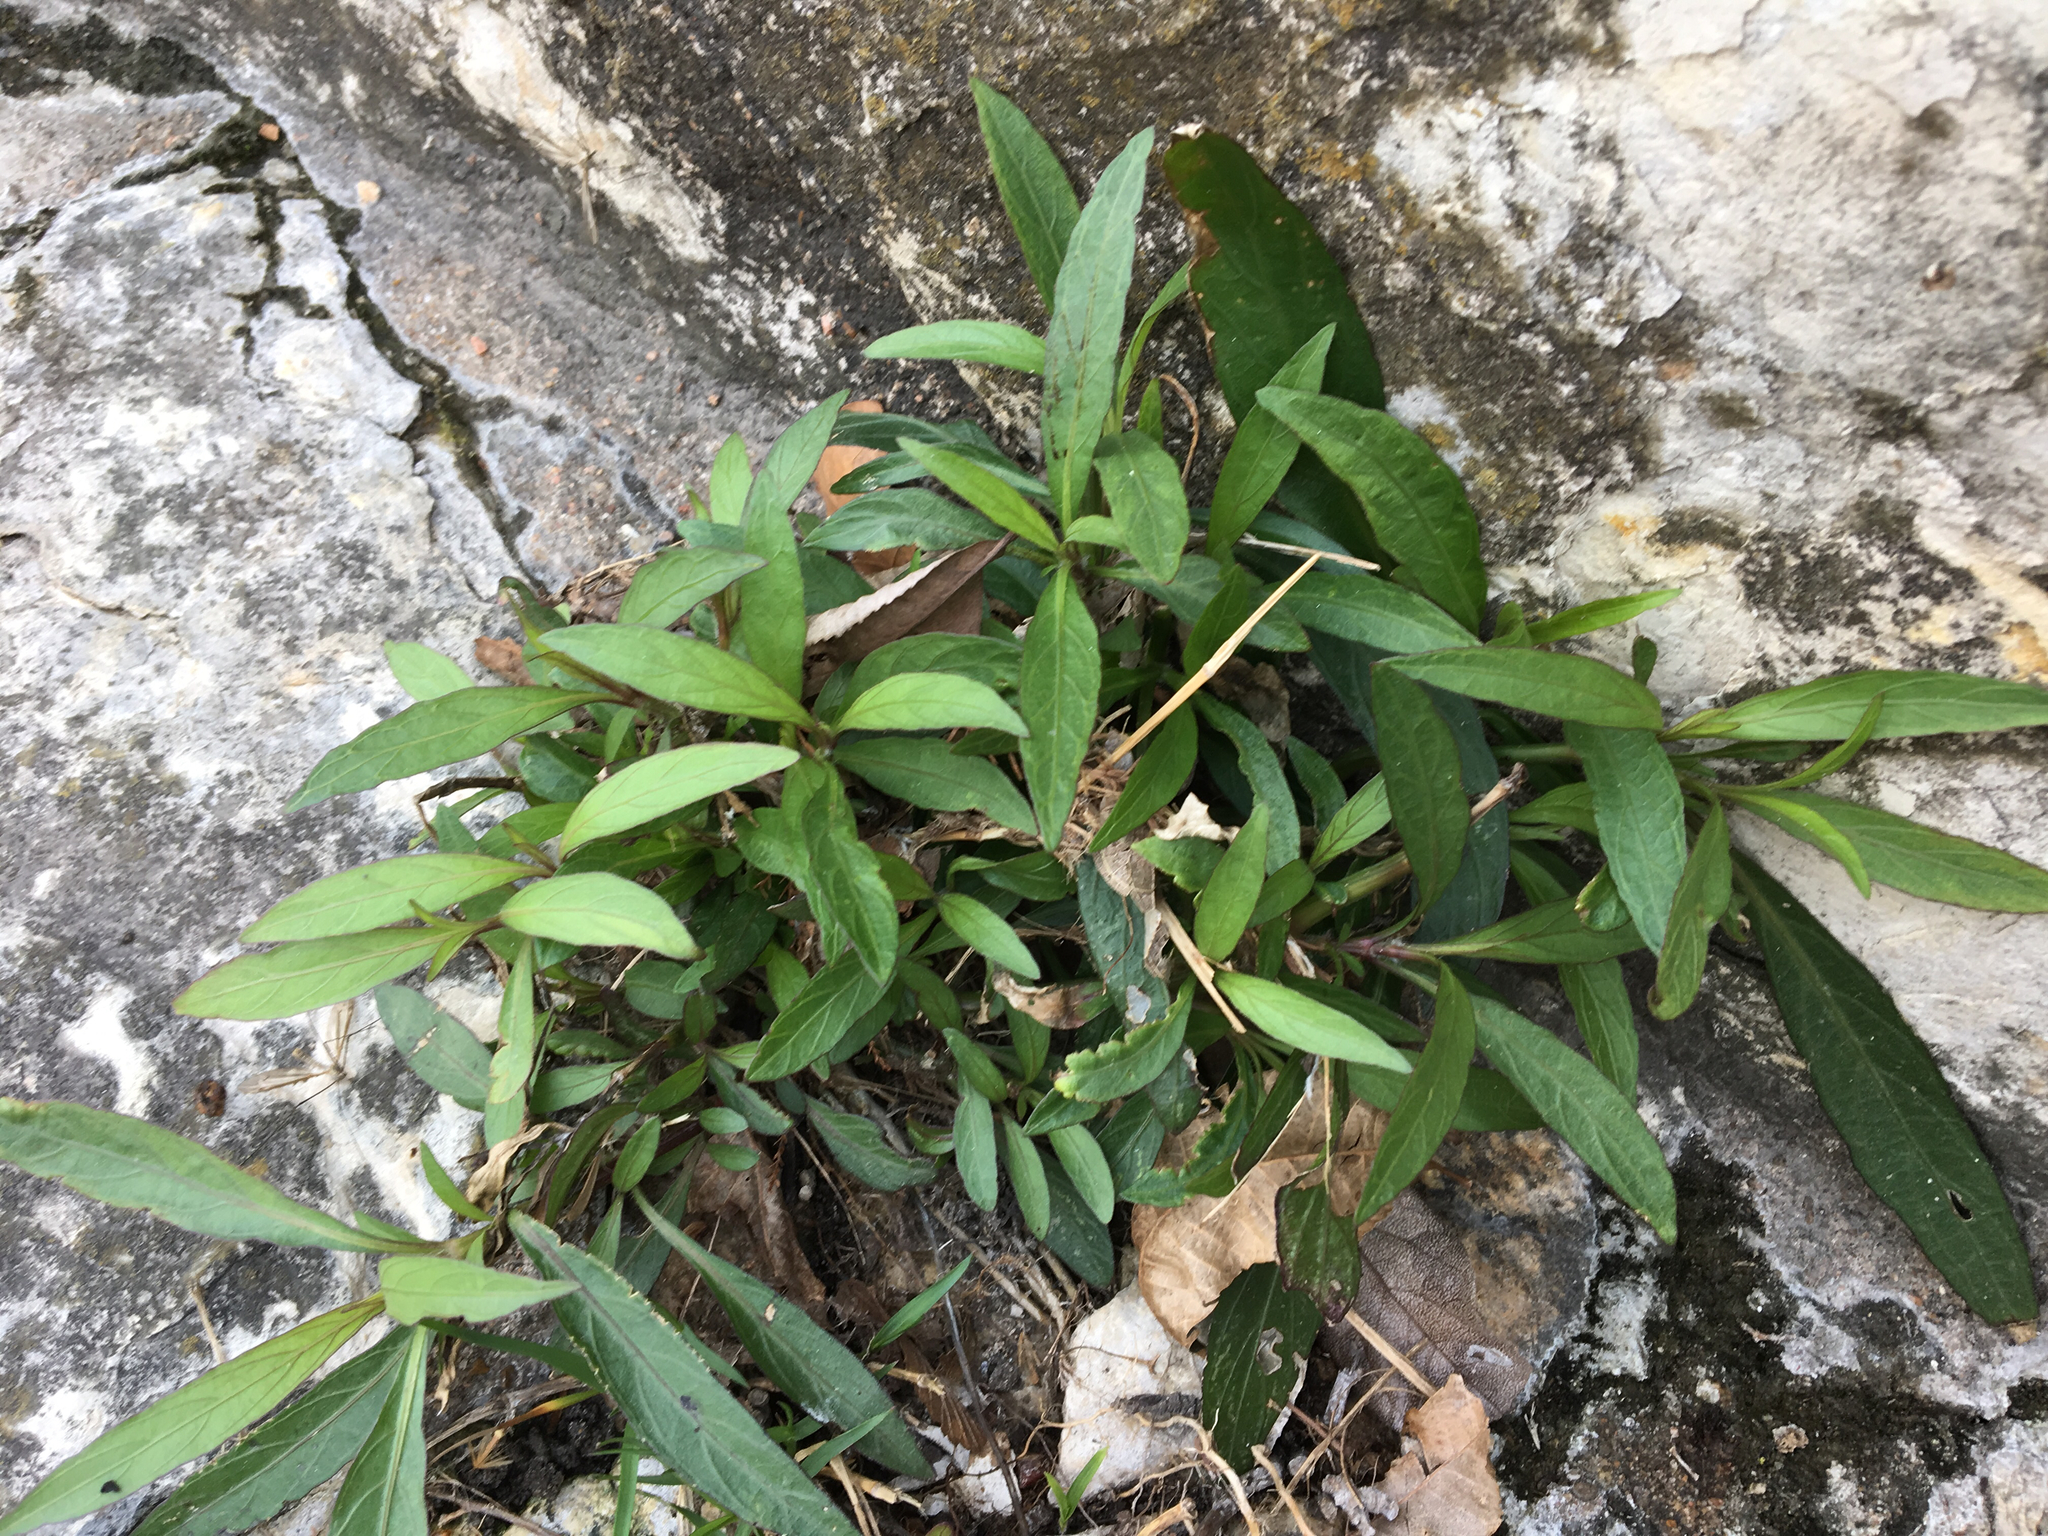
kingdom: Plantae
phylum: Tracheophyta
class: Magnoliopsida
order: Lamiales
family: Acanthaceae
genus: Ruellia
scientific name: Ruellia simplex
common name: Softseed wild petunia
